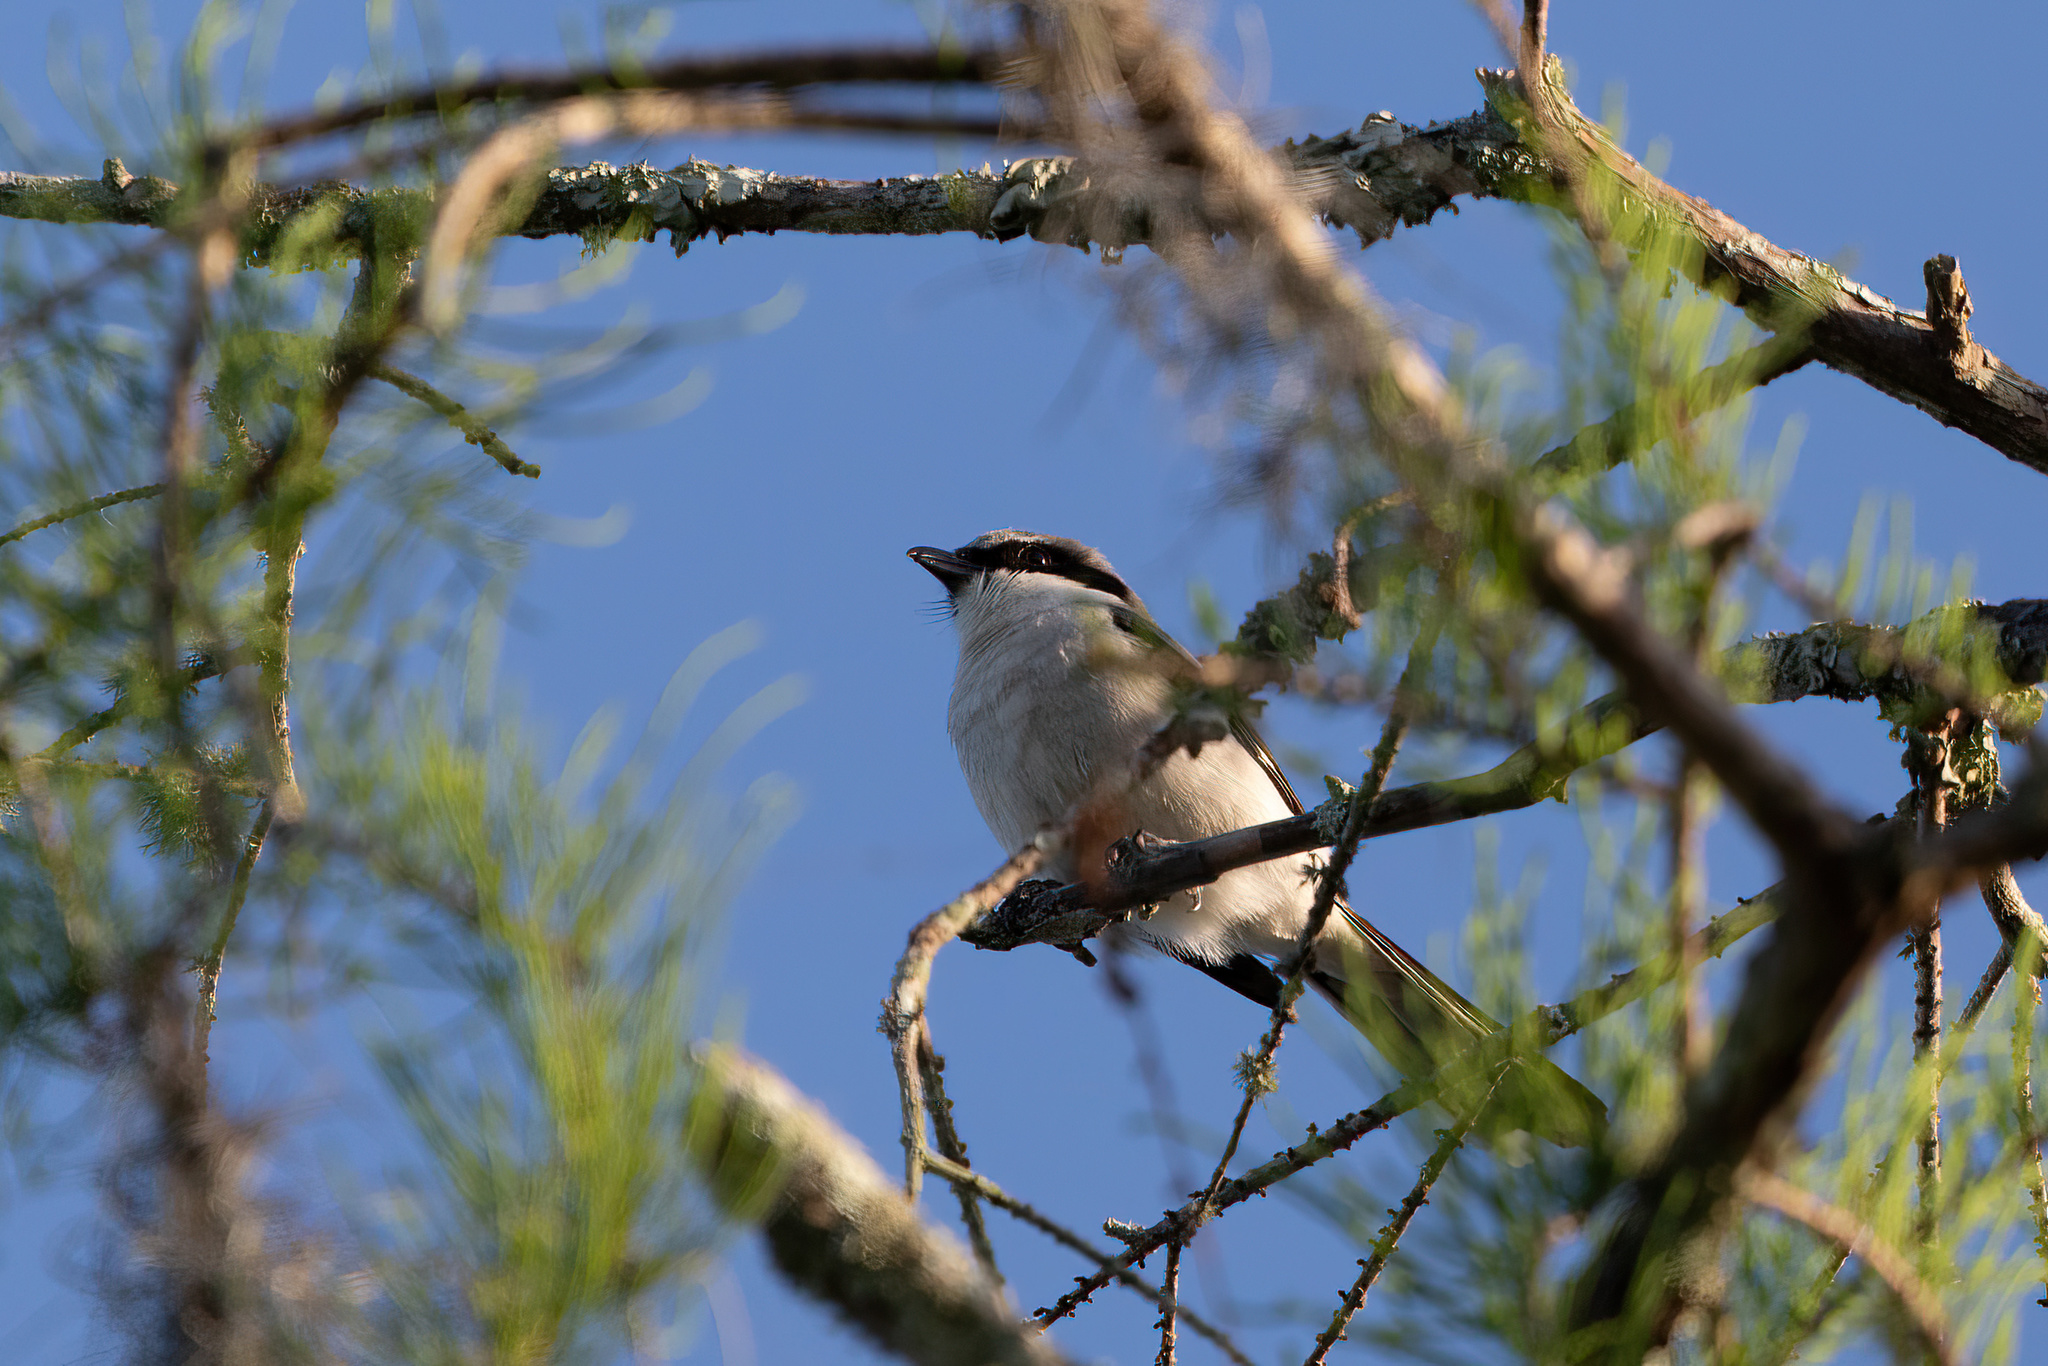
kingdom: Animalia
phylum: Chordata
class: Aves
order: Passeriformes
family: Laniidae
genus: Lanius
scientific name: Lanius ludovicianus
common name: Loggerhead shrike
